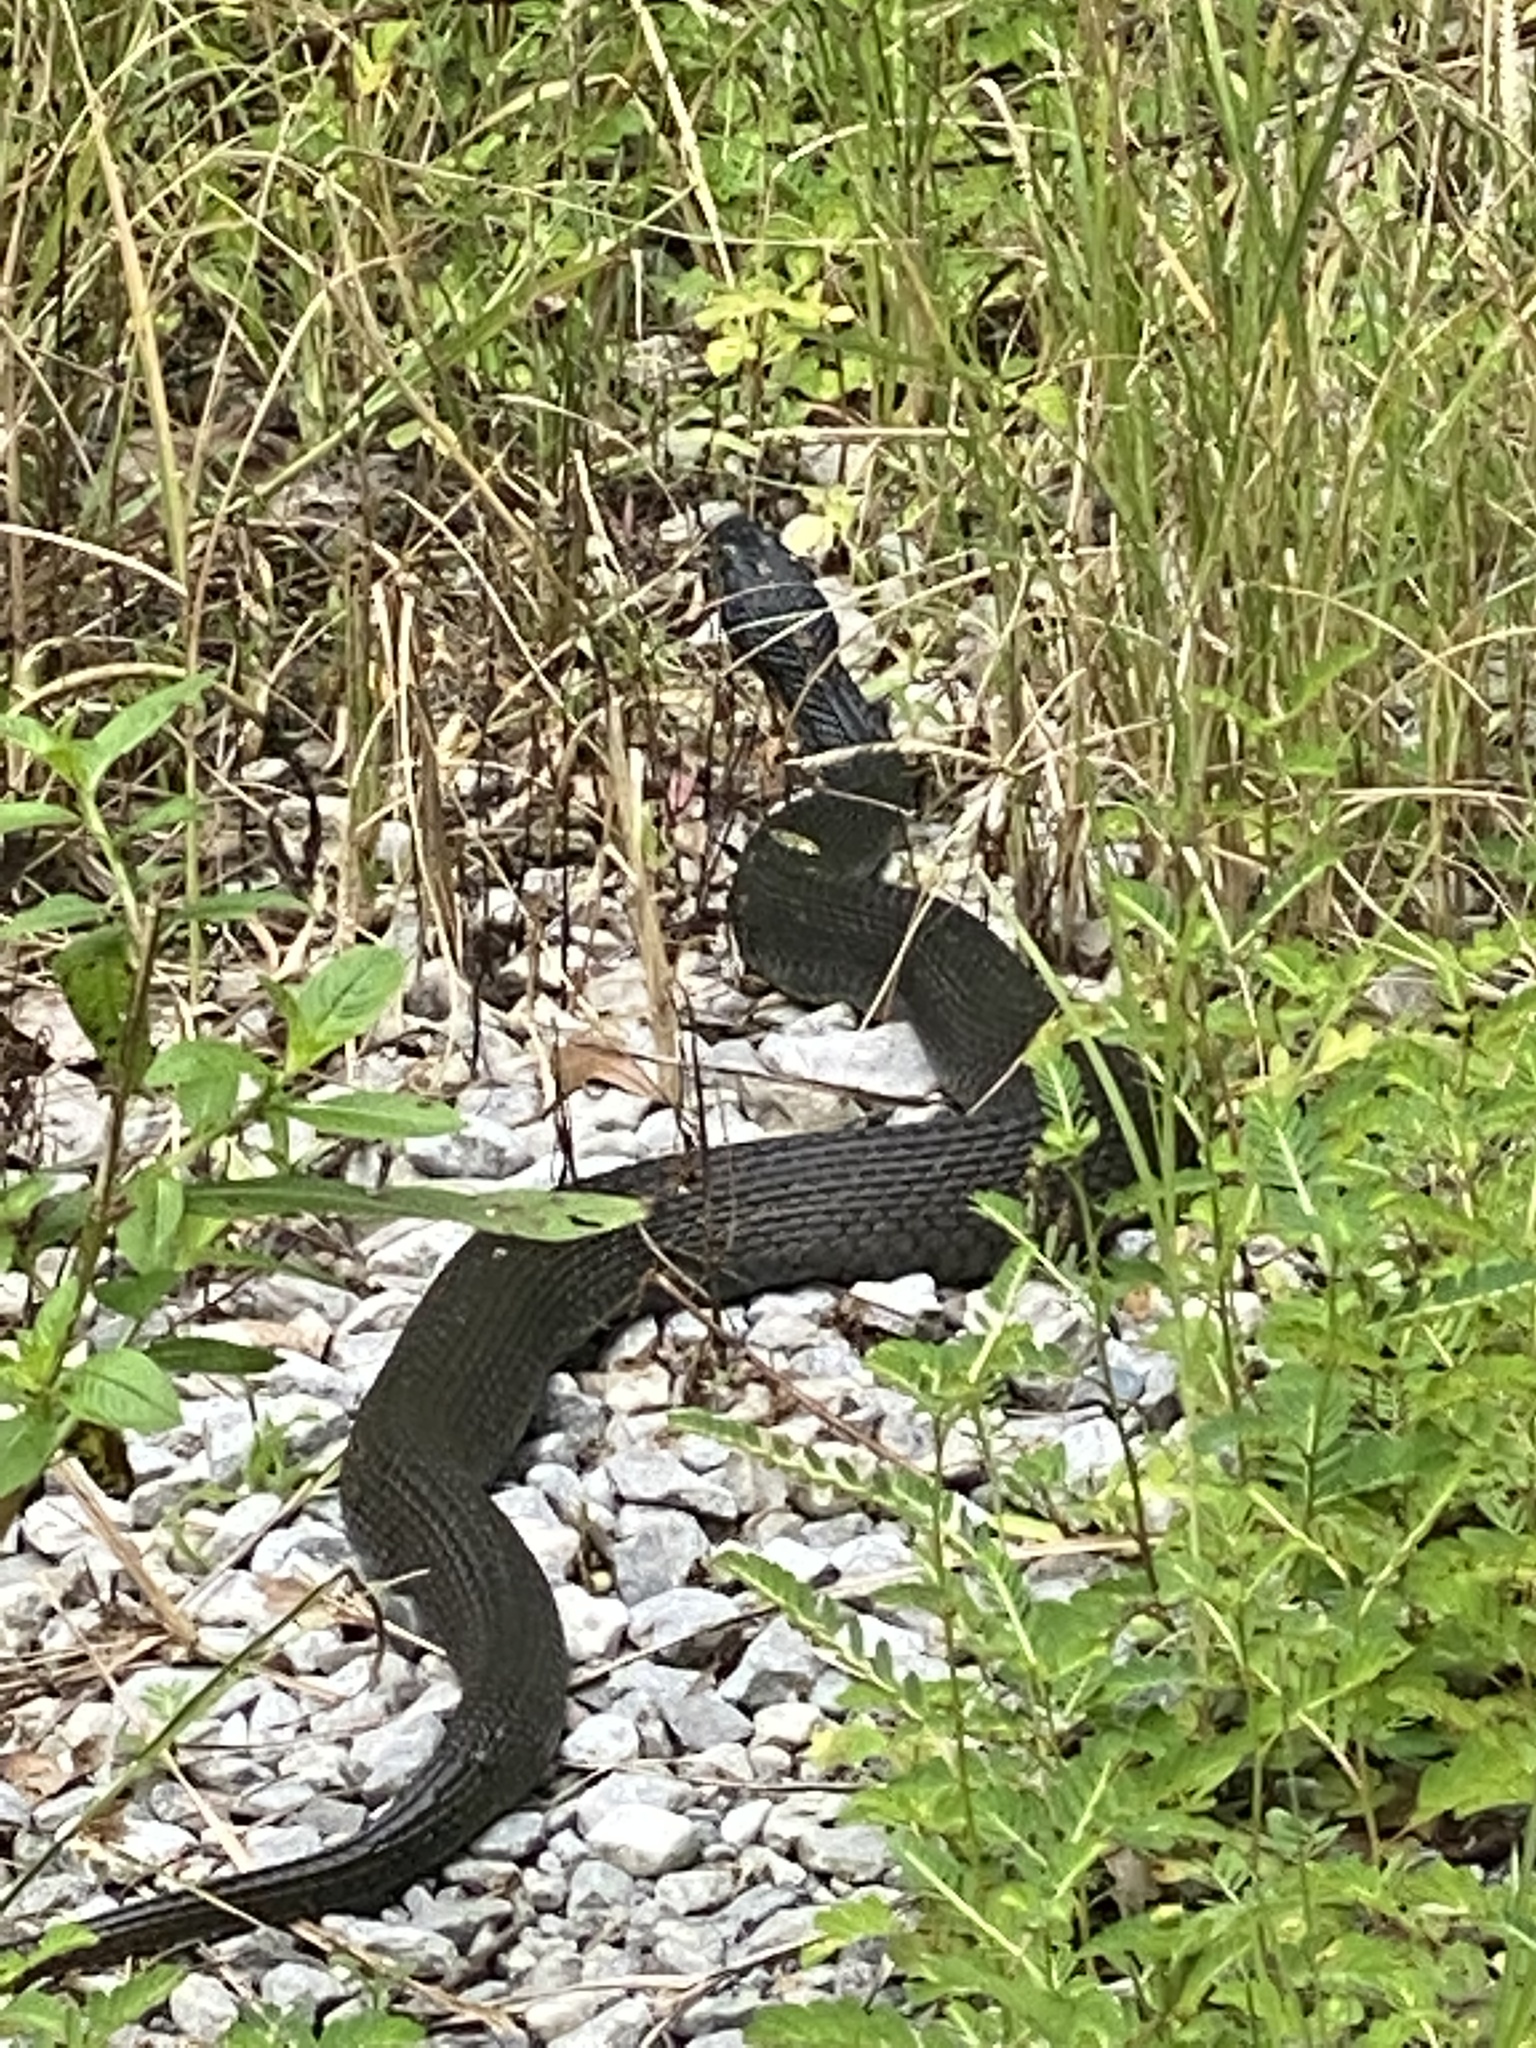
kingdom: Animalia
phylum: Chordata
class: Squamata
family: Colubridae
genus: Nerodia
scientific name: Nerodia erythrogaster
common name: Plainbelly water snake
